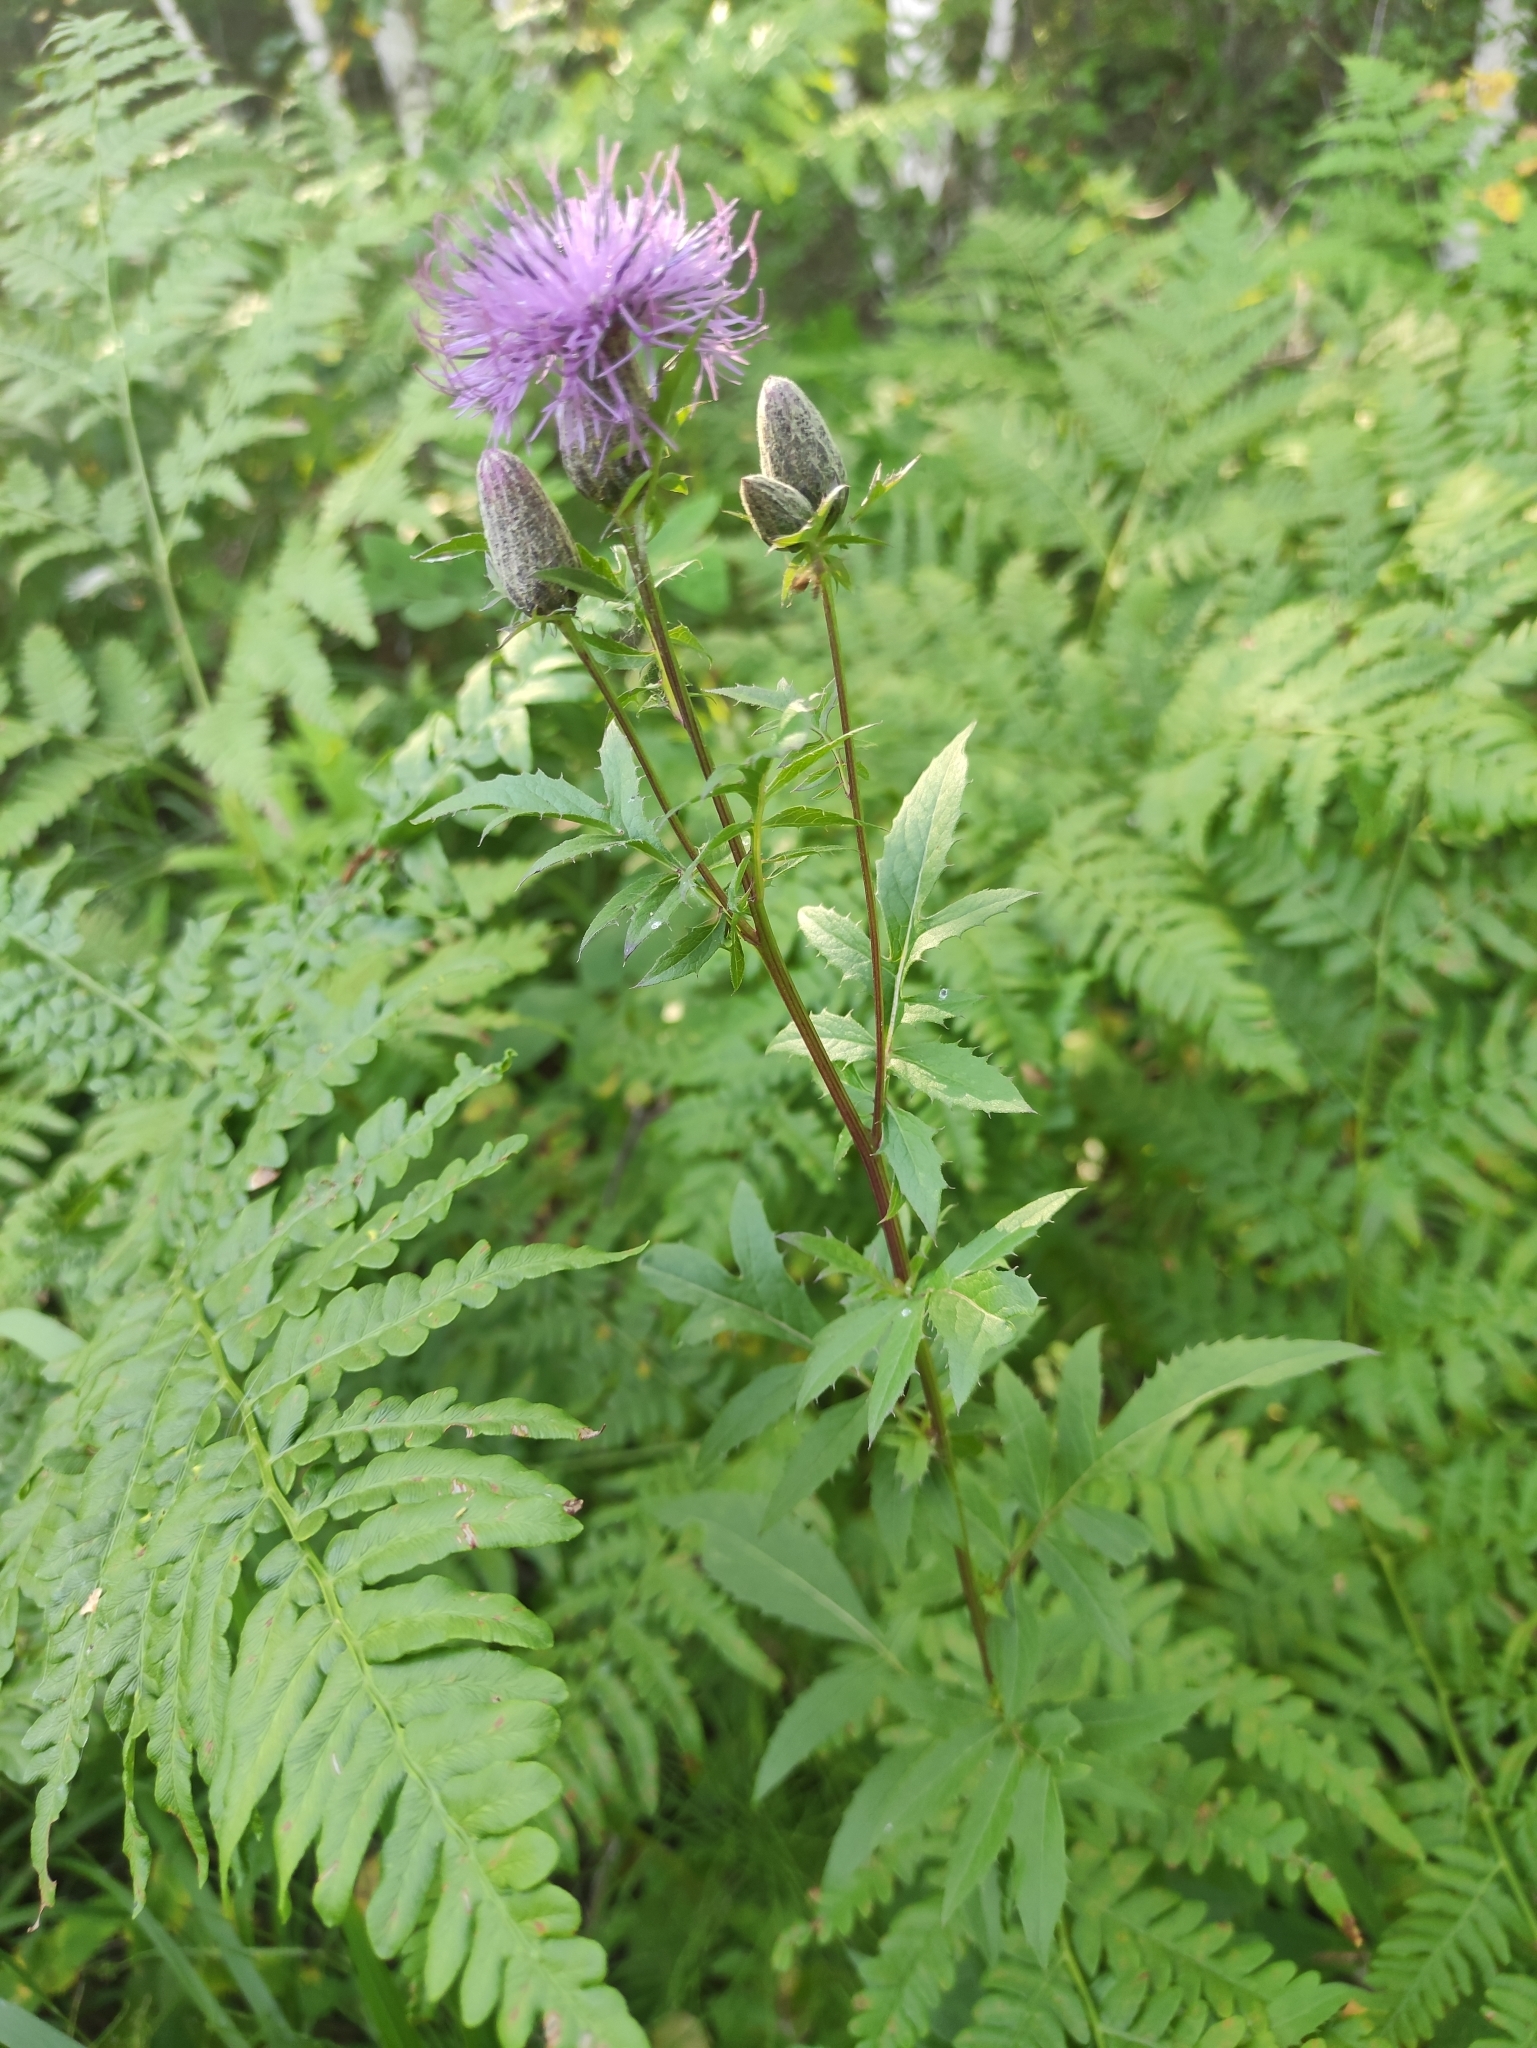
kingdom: Plantae
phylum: Tracheophyta
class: Magnoliopsida
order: Asterales
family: Asteraceae
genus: Serratula
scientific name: Serratula coronata
